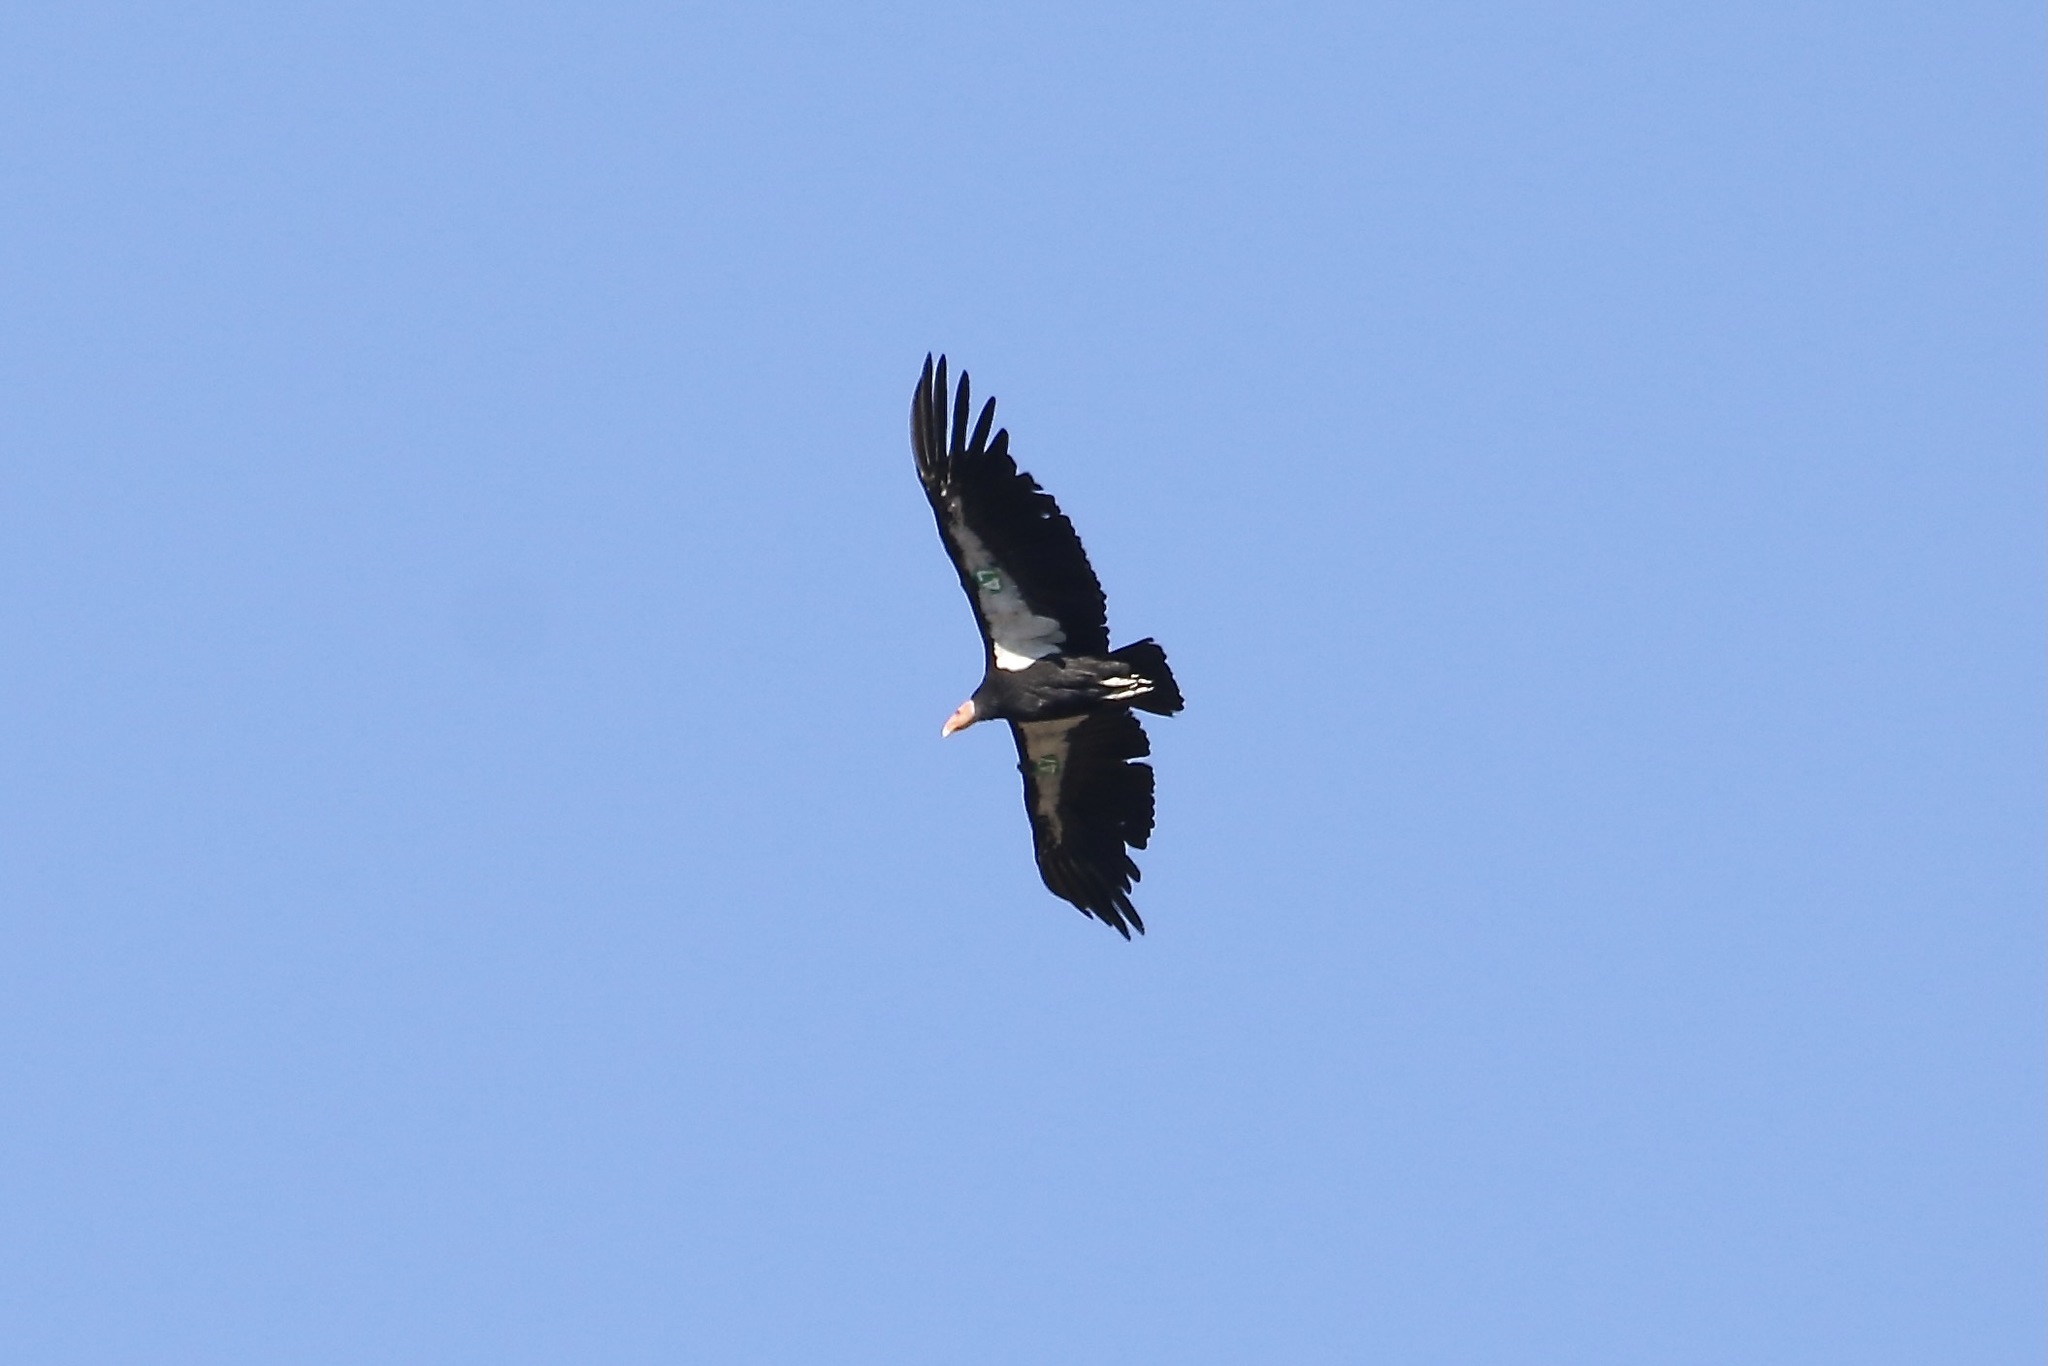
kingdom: Animalia
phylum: Chordata
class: Aves
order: Accipitriformes
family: Cathartidae
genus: Gymnogyps
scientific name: Gymnogyps californianus
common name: California condor
